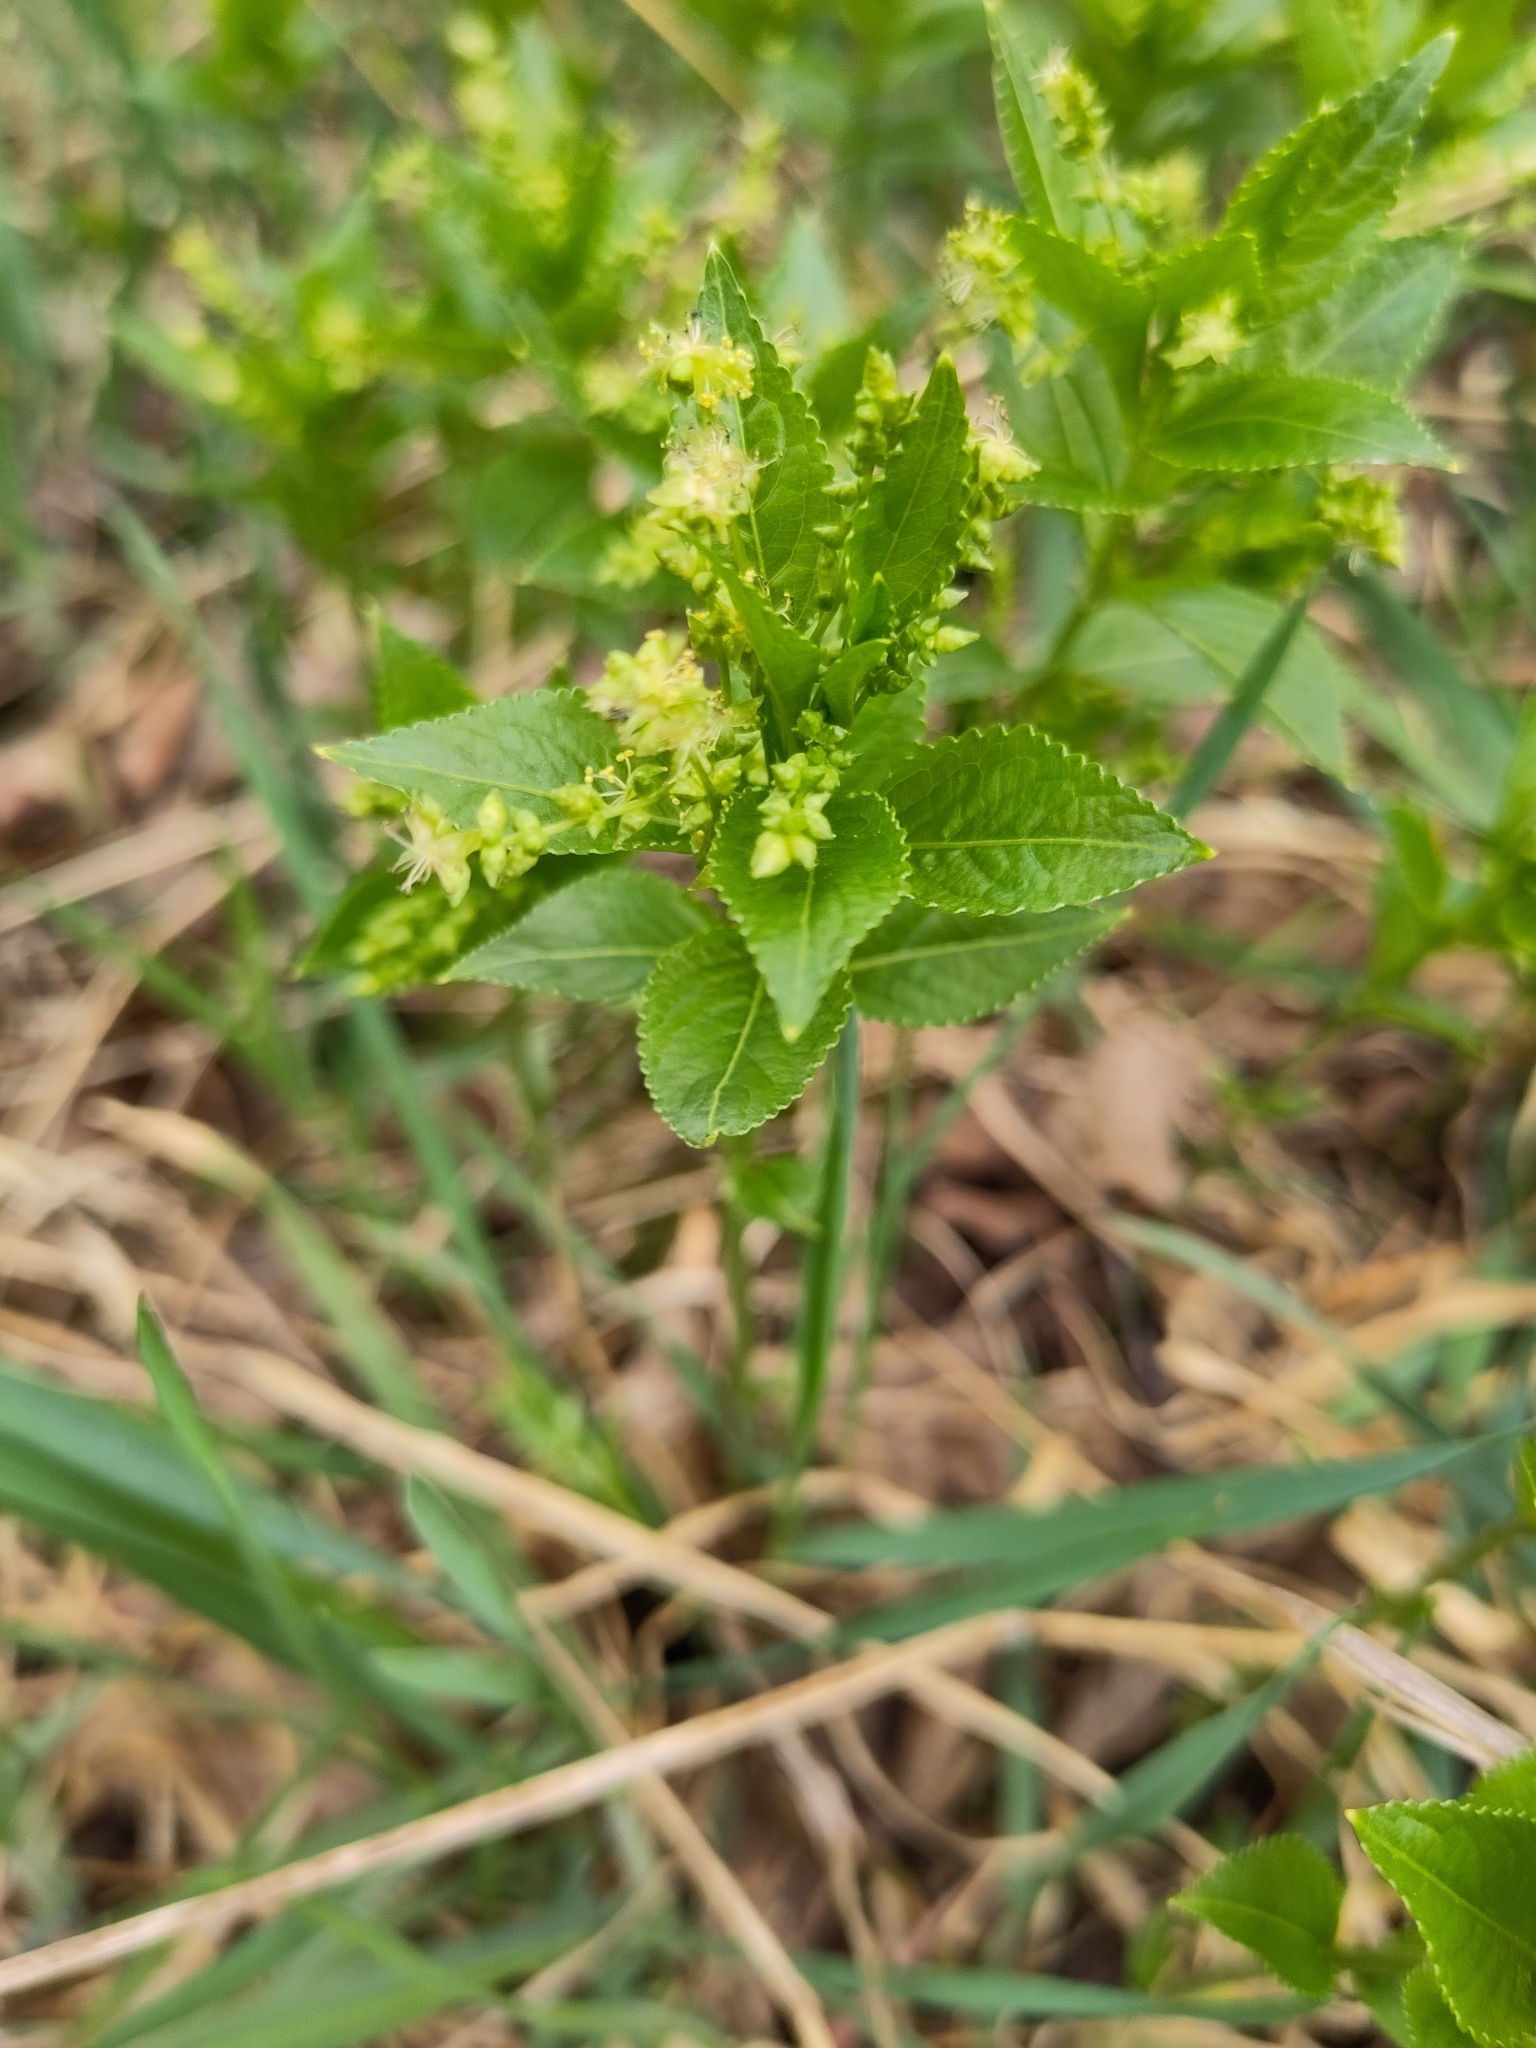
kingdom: Plantae
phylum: Tracheophyta
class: Magnoliopsida
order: Malpighiales
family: Euphorbiaceae
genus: Mercurialis
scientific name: Mercurialis perennis
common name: Dog mercury
